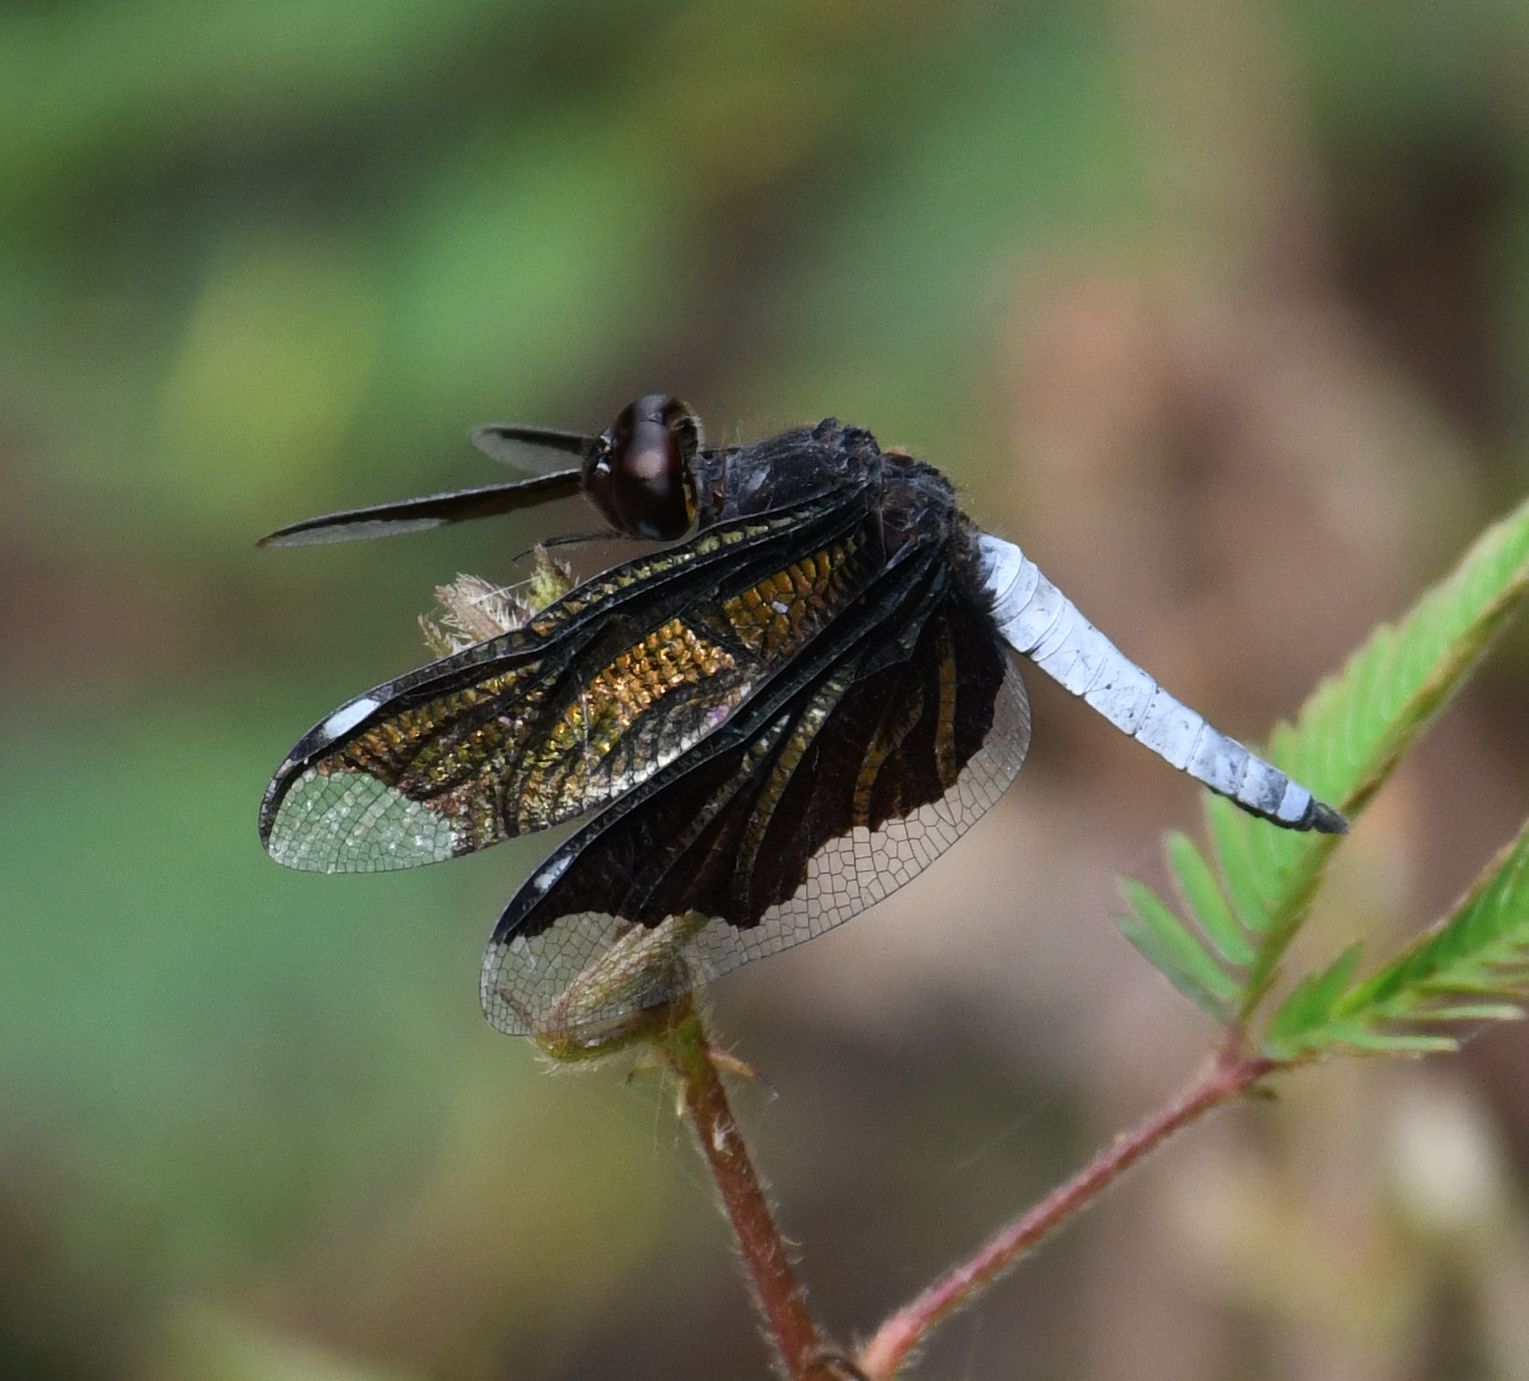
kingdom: Animalia
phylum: Arthropoda
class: Insecta
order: Odonata
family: Libellulidae
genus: Palpopleura
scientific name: Palpopleura lucia
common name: Lucia widow
